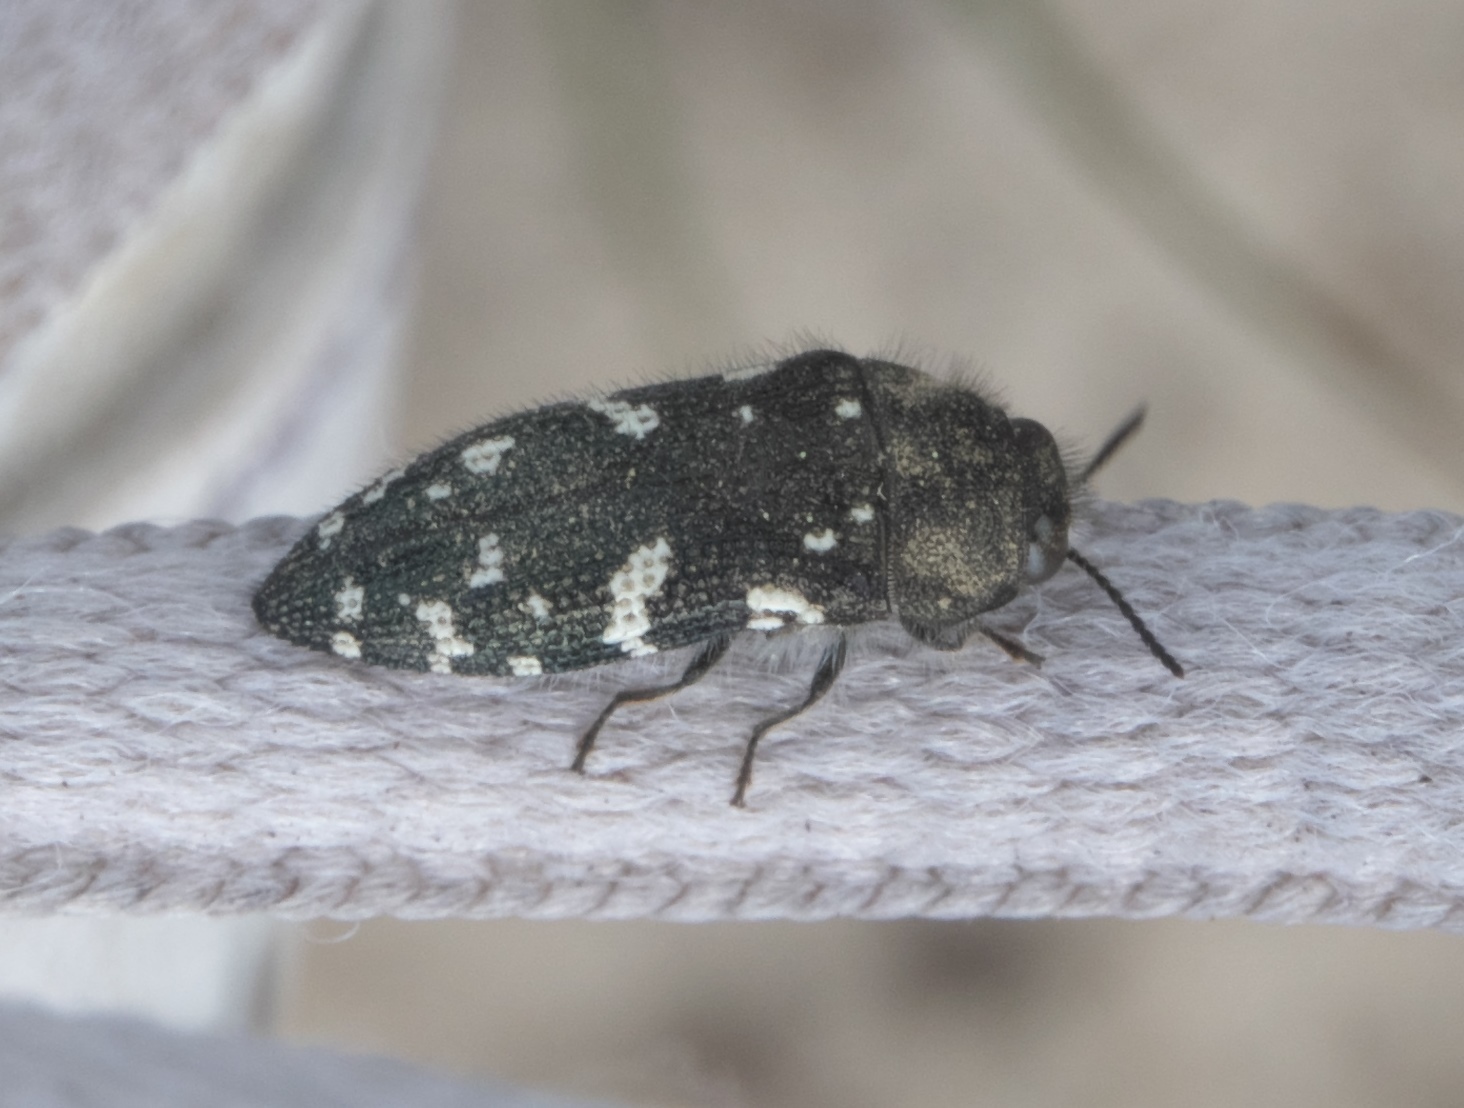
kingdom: Animalia
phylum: Arthropoda
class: Insecta
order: Coleoptera
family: Buprestidae
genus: Acmaeodera
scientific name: Acmaeodera ornata
